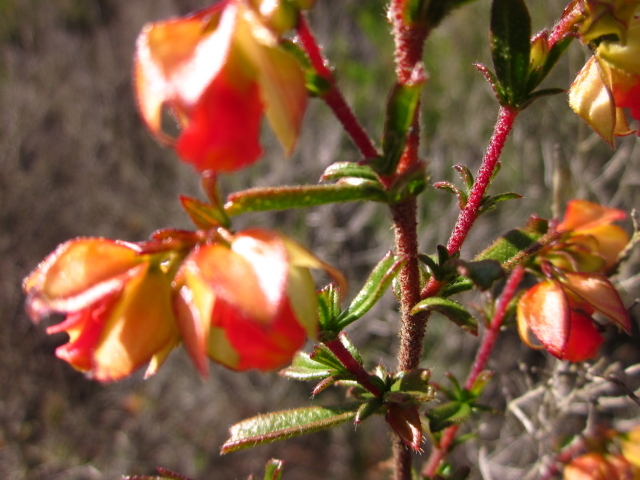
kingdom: Plantae
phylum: Tracheophyta
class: Magnoliopsida
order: Malvales
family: Malvaceae
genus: Hermannia
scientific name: Hermannia angularis
